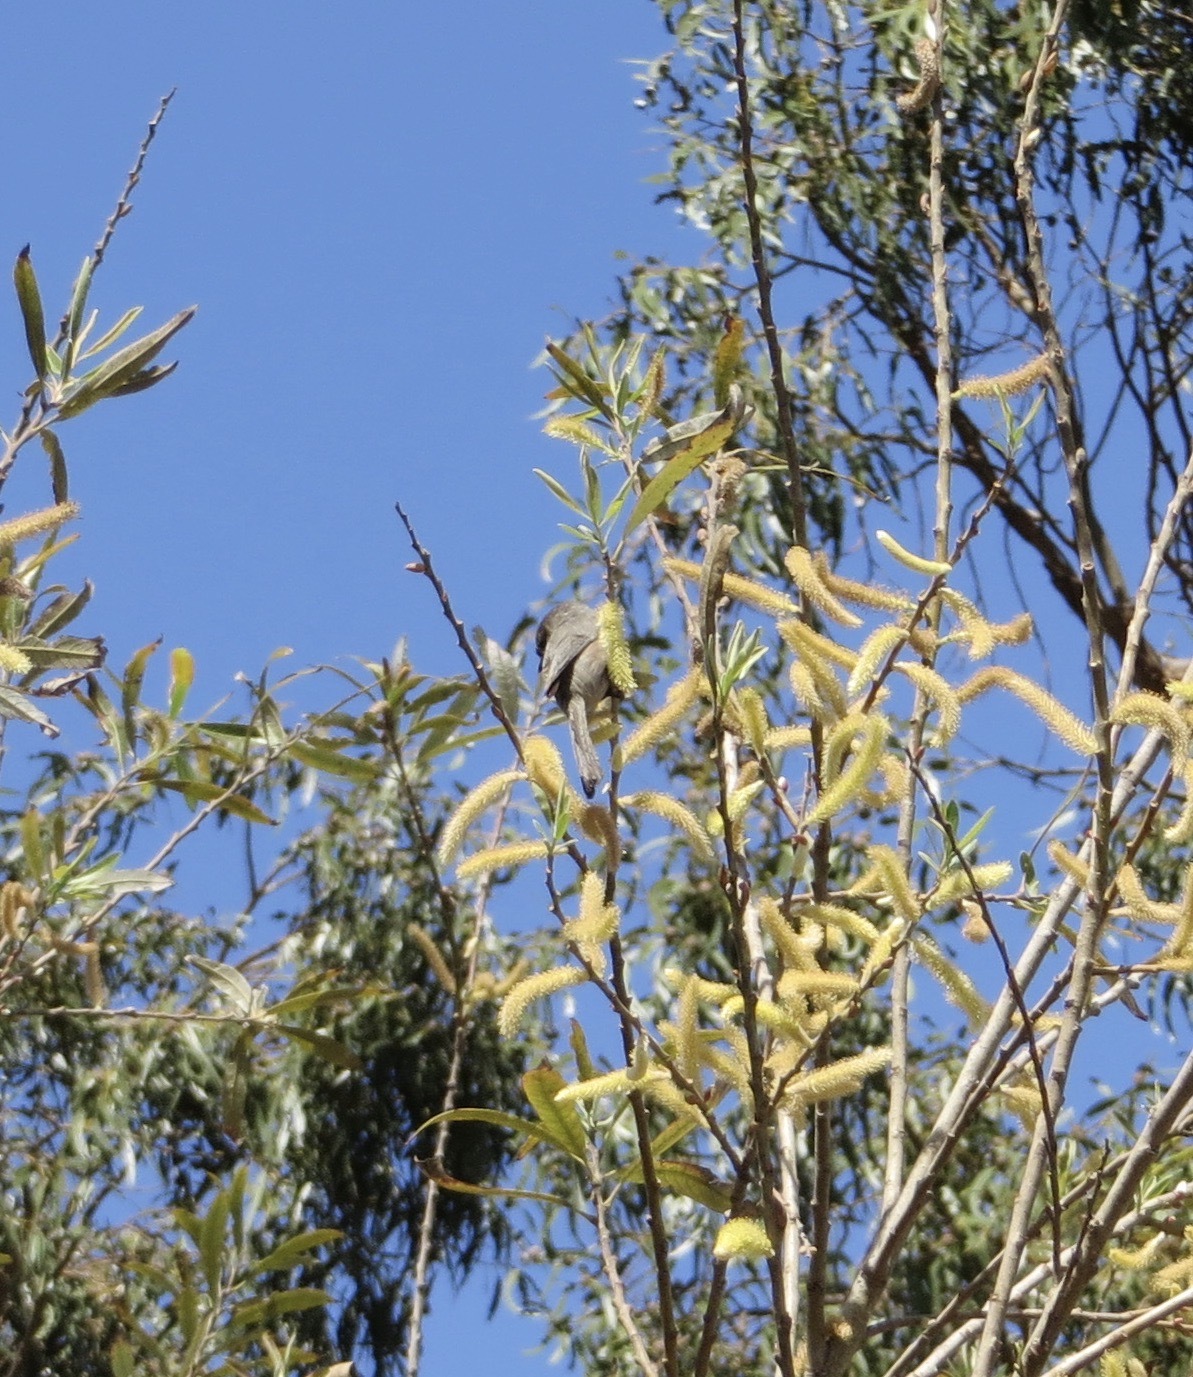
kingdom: Animalia
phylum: Chordata
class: Aves
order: Passeriformes
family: Aegithalidae
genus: Psaltriparus
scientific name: Psaltriparus minimus
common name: American bushtit
